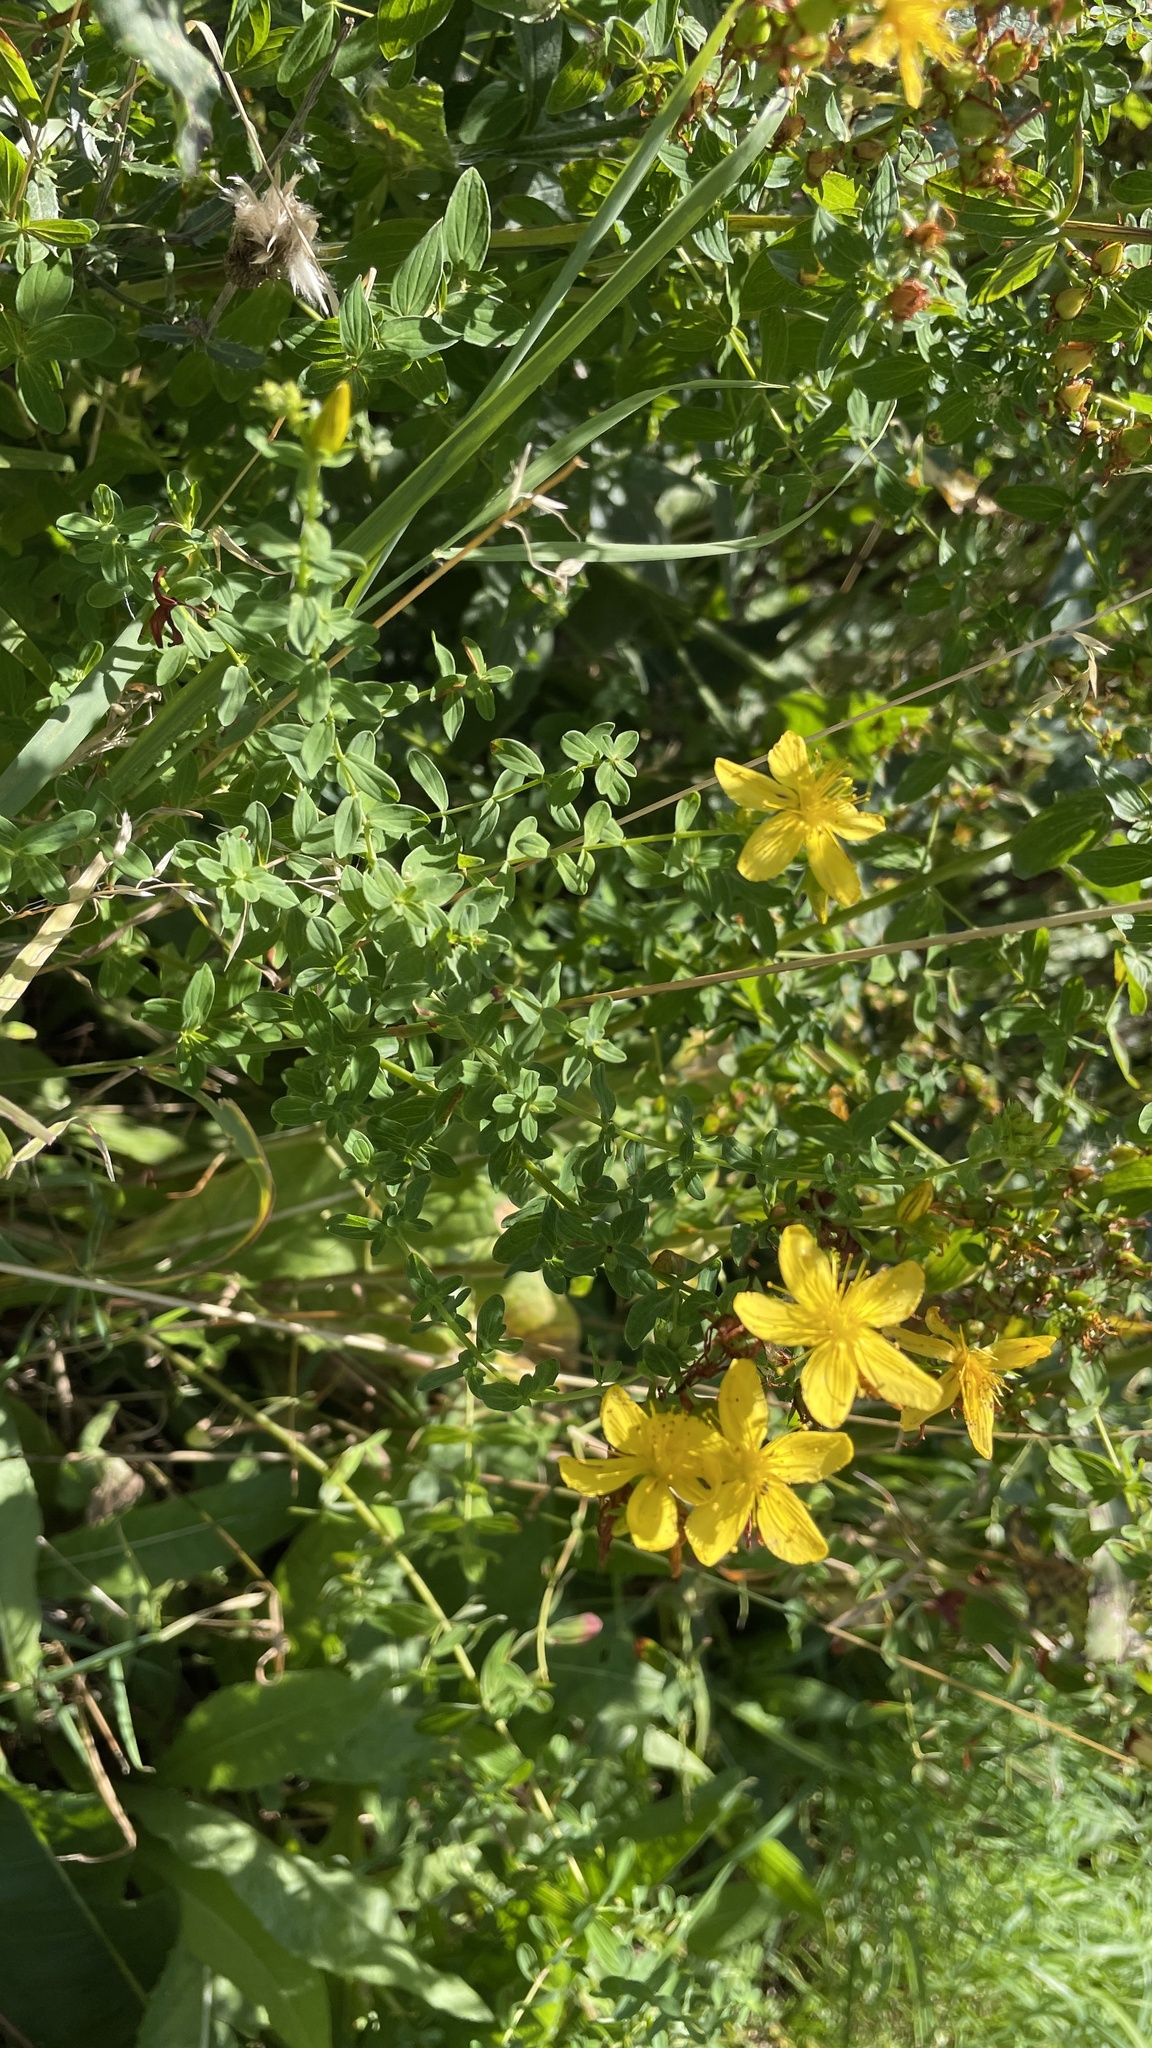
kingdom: Plantae
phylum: Tracheophyta
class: Magnoliopsida
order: Malpighiales
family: Hypericaceae
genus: Hypericum
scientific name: Hypericum perforatum
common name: Common st. johnswort
